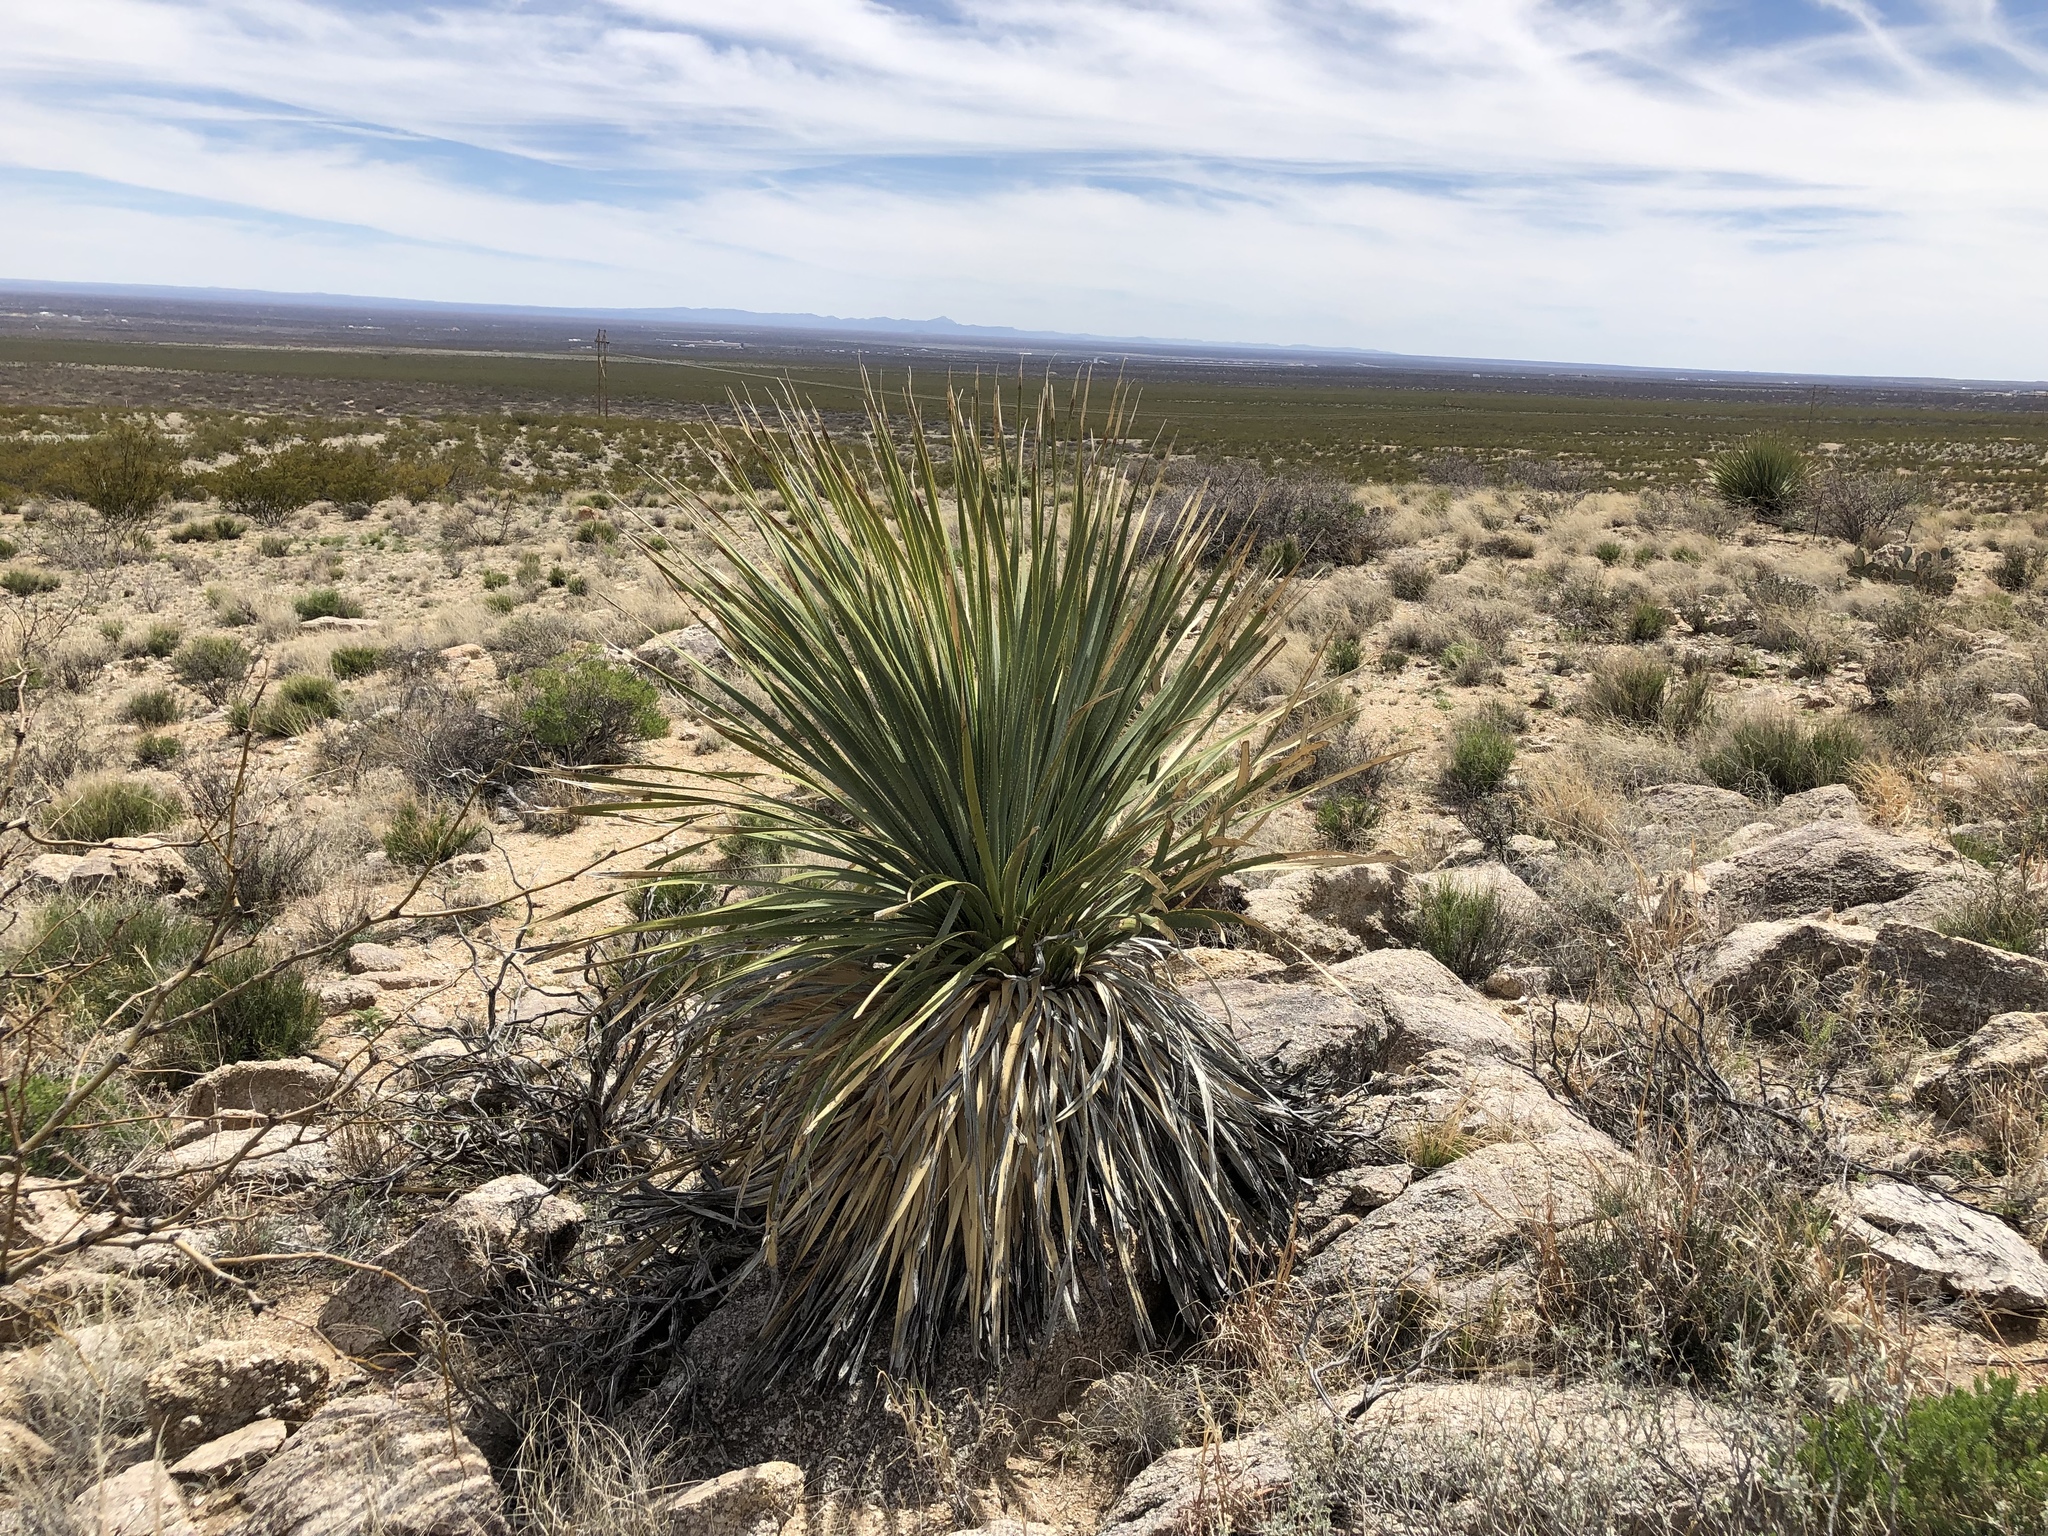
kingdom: Plantae
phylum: Tracheophyta
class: Liliopsida
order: Asparagales
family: Asparagaceae
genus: Dasylirion
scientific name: Dasylirion wheeleri
